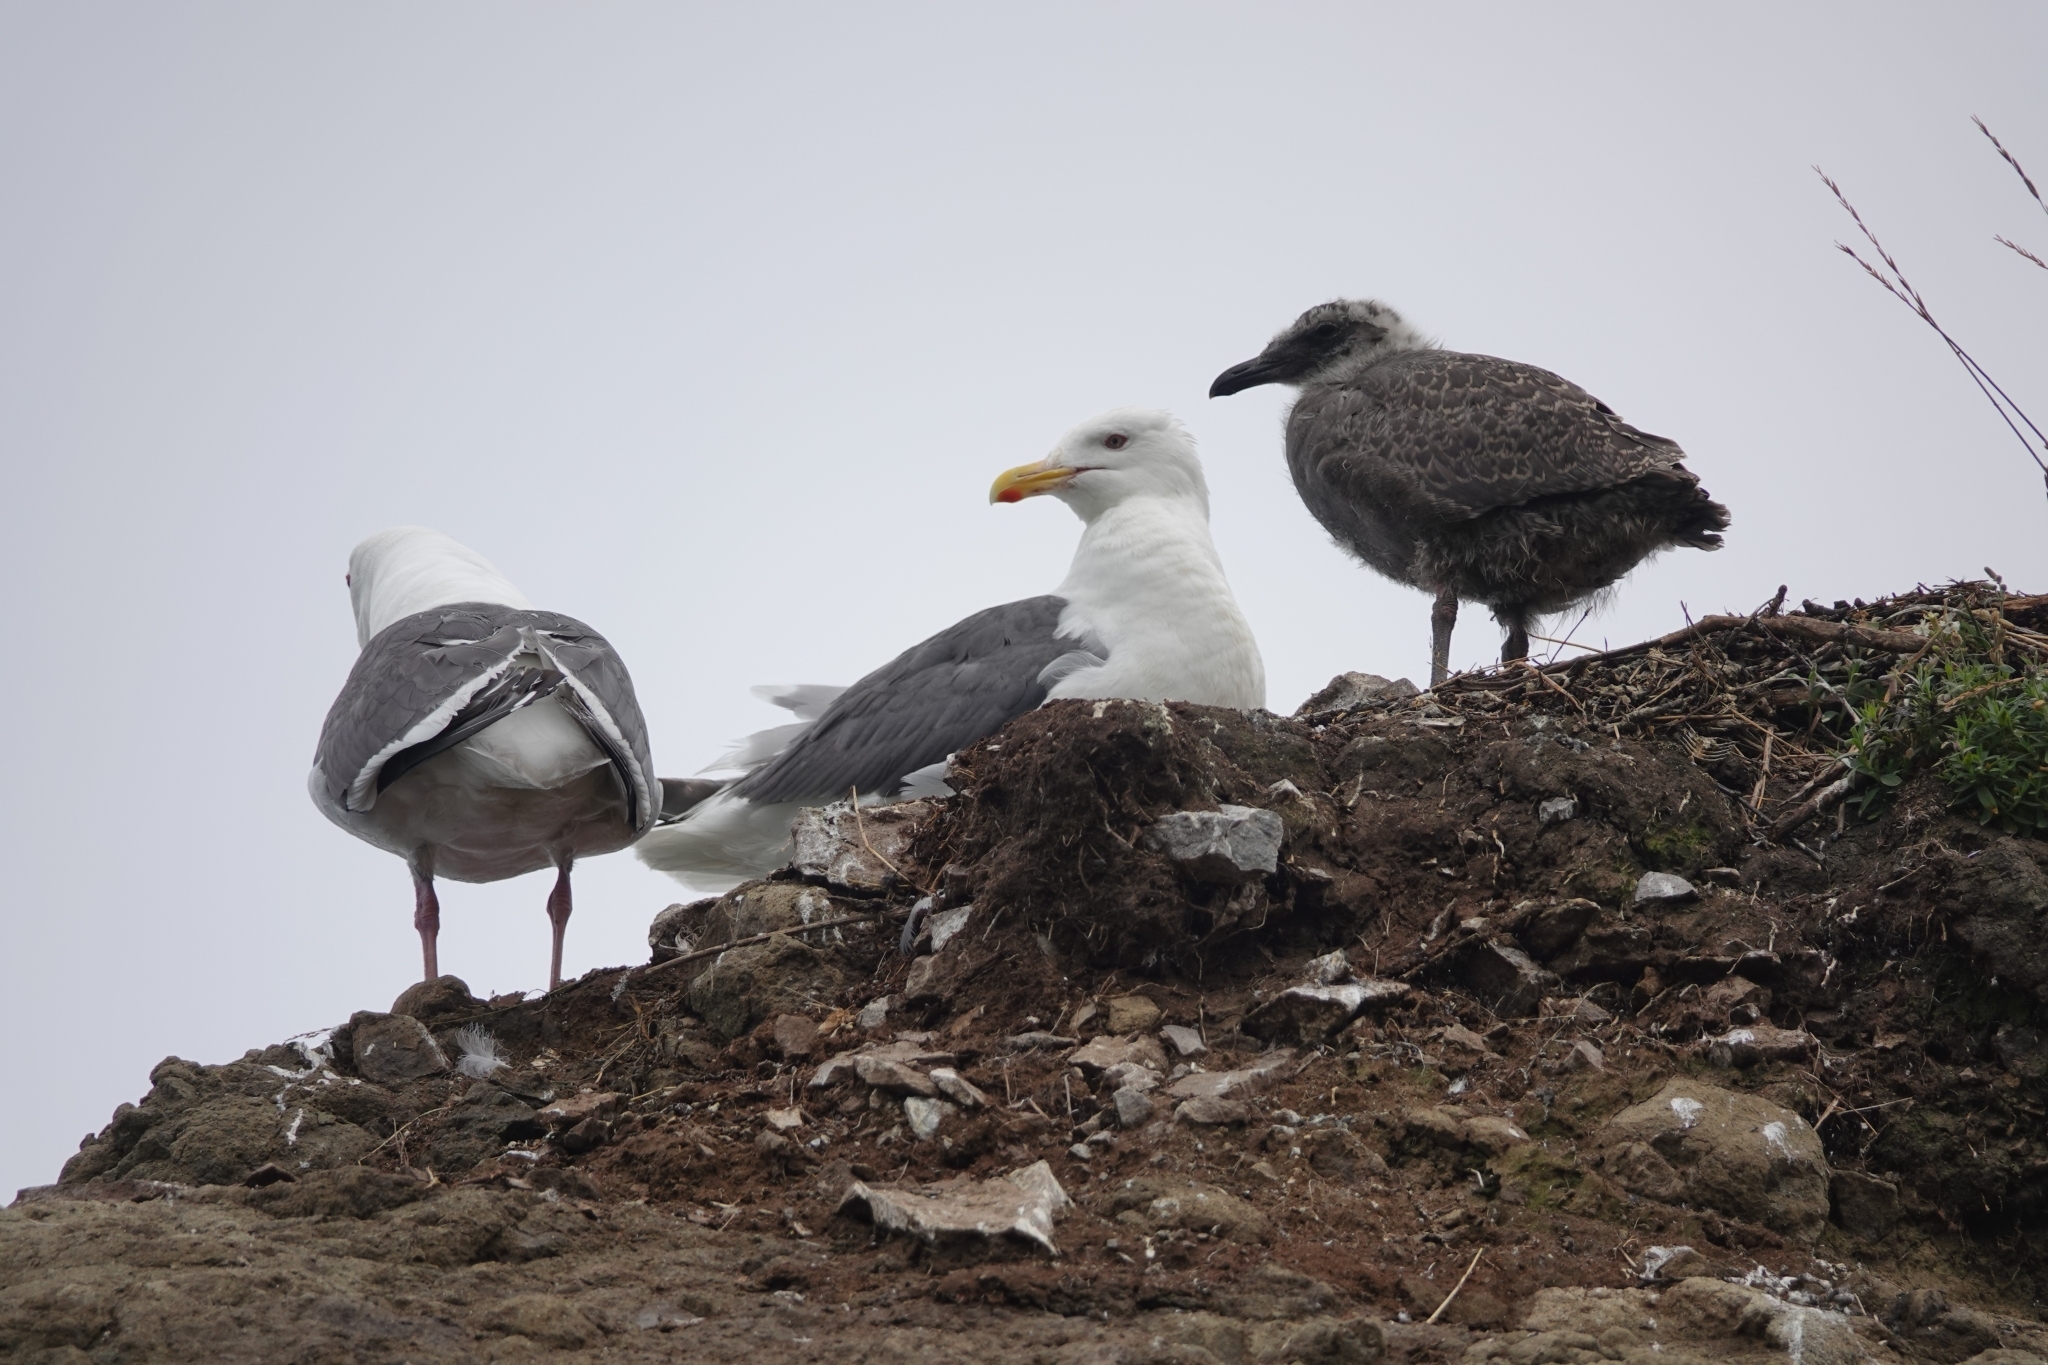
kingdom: Animalia
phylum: Chordata
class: Aves
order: Charadriiformes
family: Laridae
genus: Larus
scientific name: Larus schistisagus
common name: Slaty-backed gull
